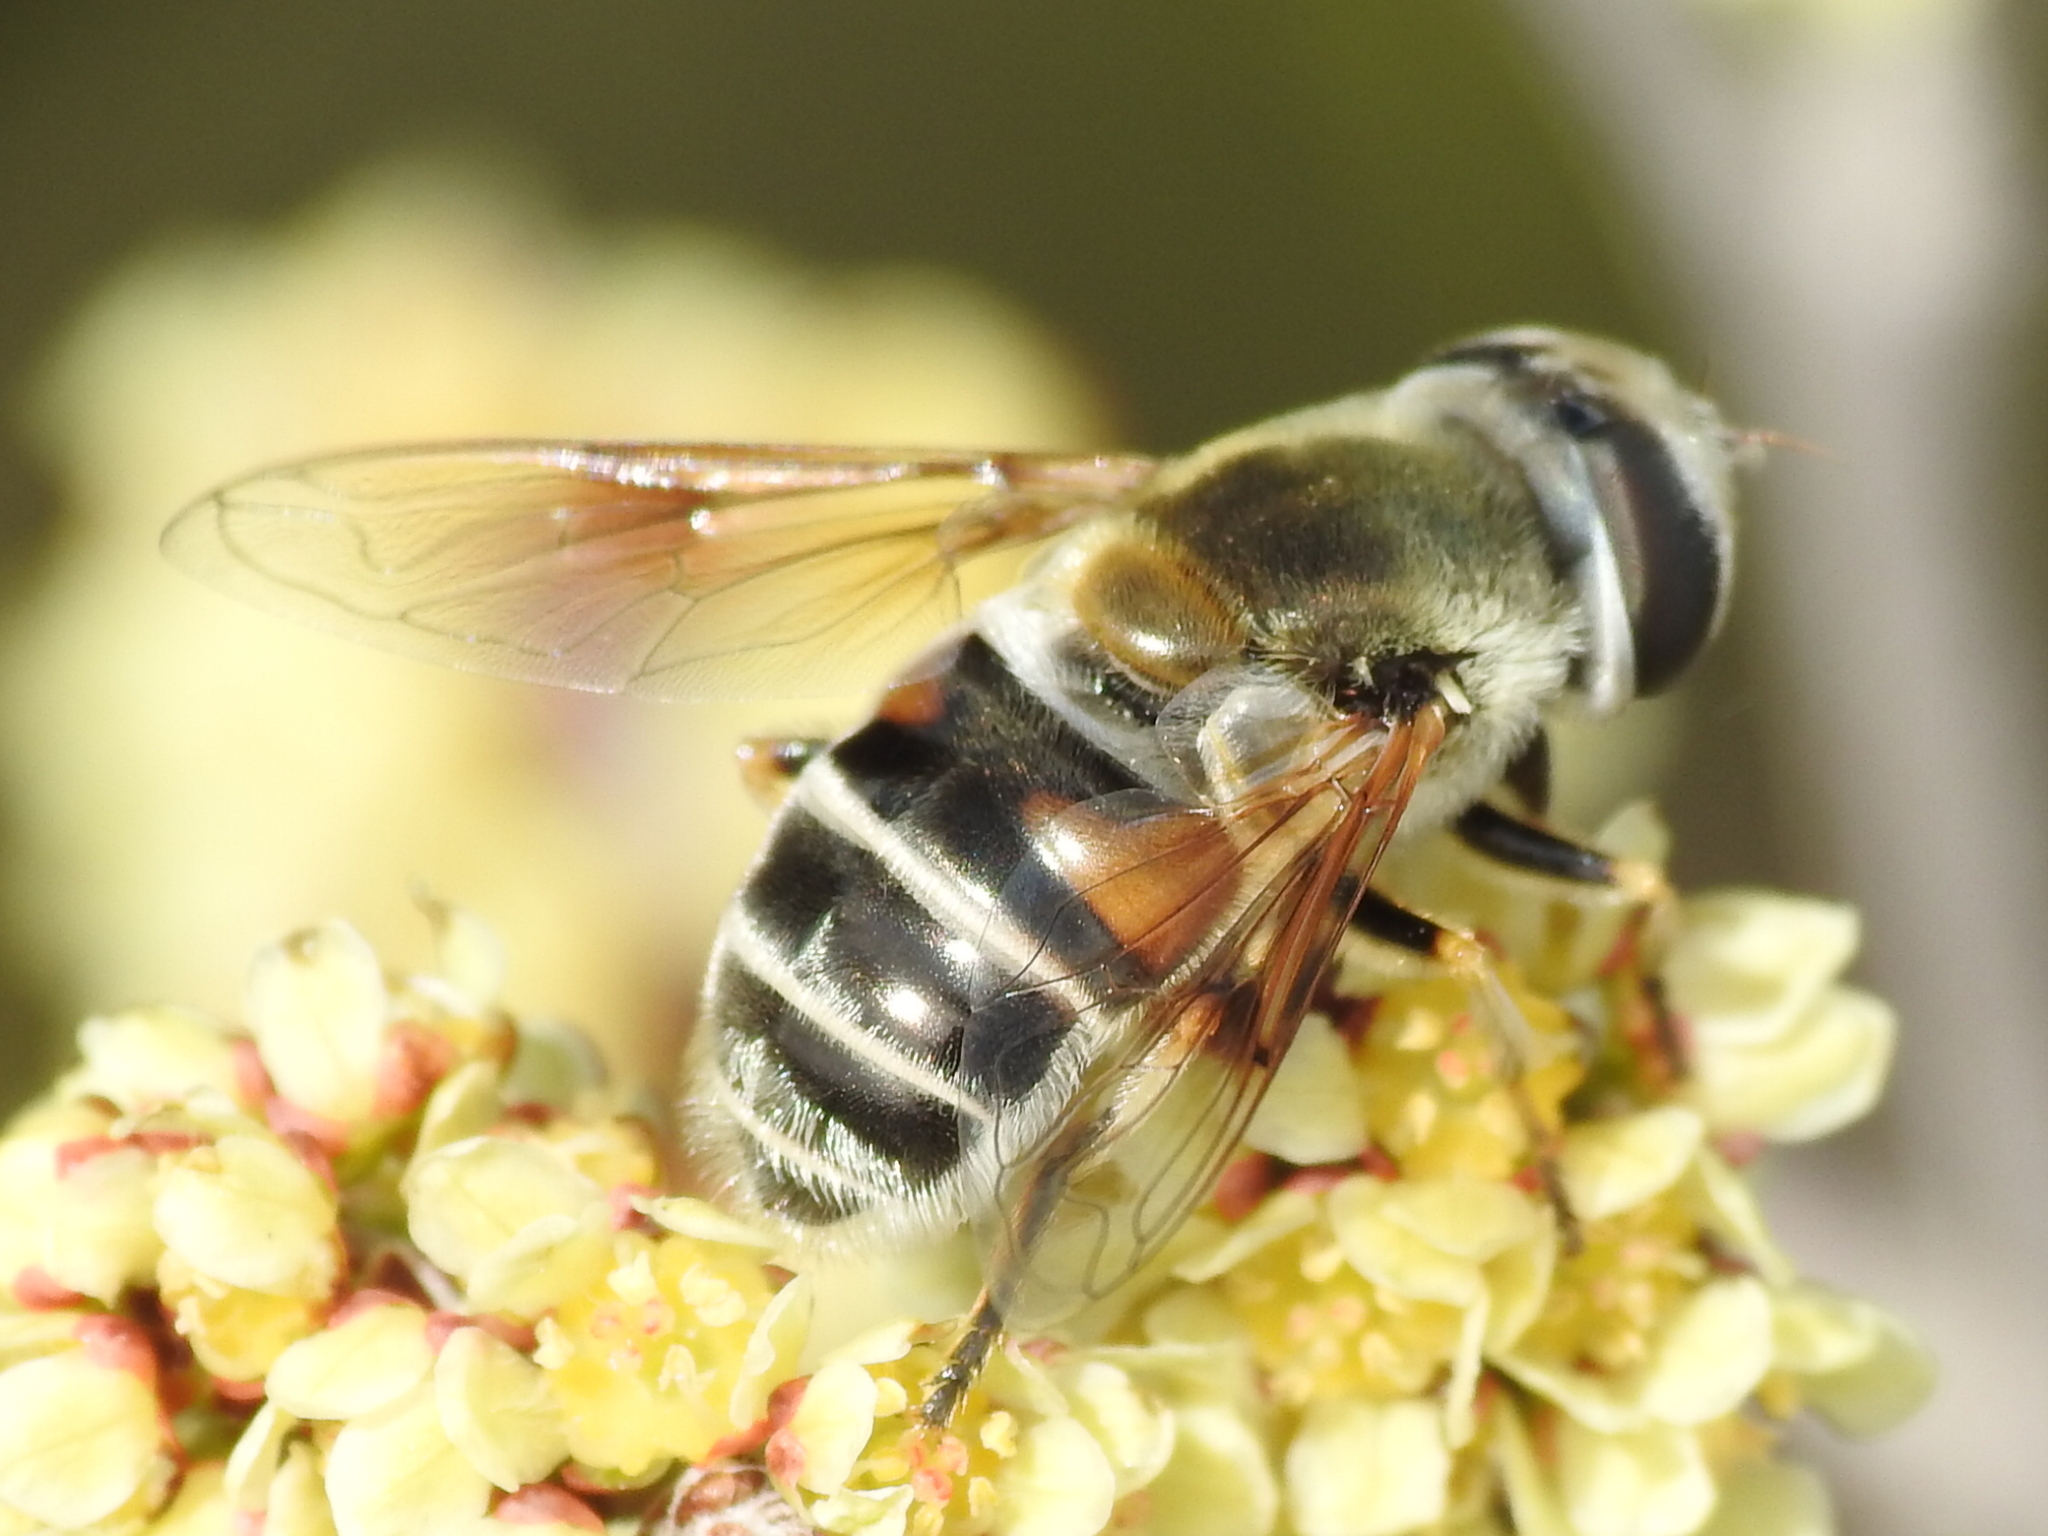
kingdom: Animalia
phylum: Arthropoda
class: Insecta
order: Diptera
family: Syrphidae
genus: Eristalis
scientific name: Eristalis stipator
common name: Yellow-shouldered drone fly
